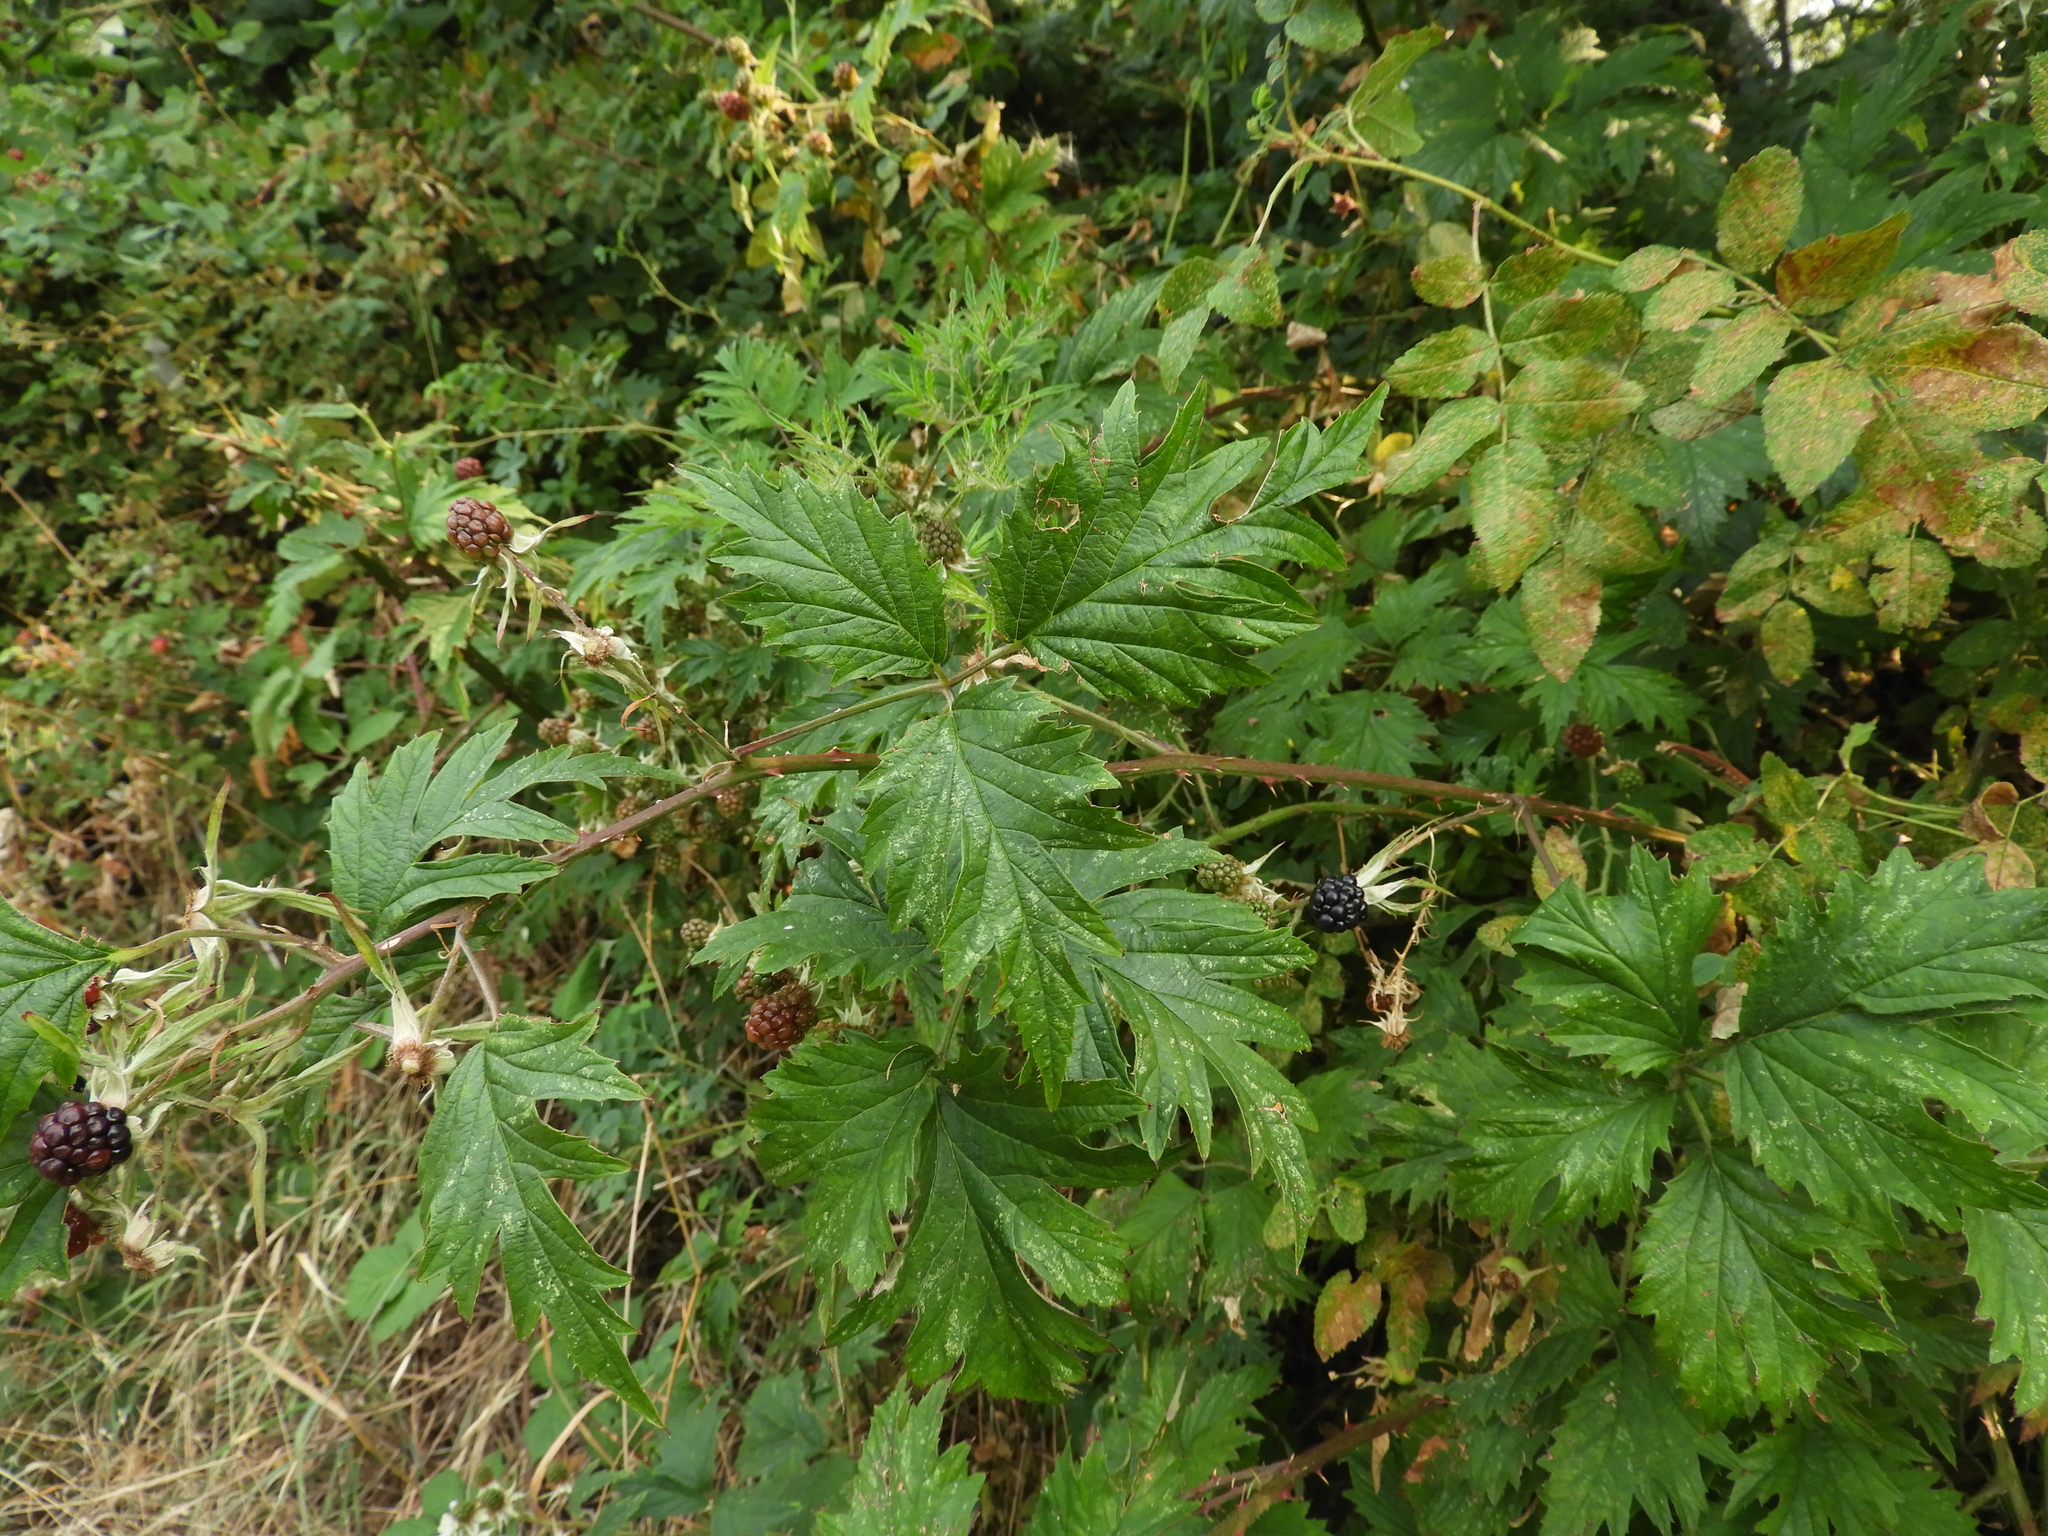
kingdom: Plantae
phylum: Tracheophyta
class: Magnoliopsida
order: Rosales
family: Rosaceae
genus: Rubus
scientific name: Rubus laciniatus
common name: Evergreen blackberry
